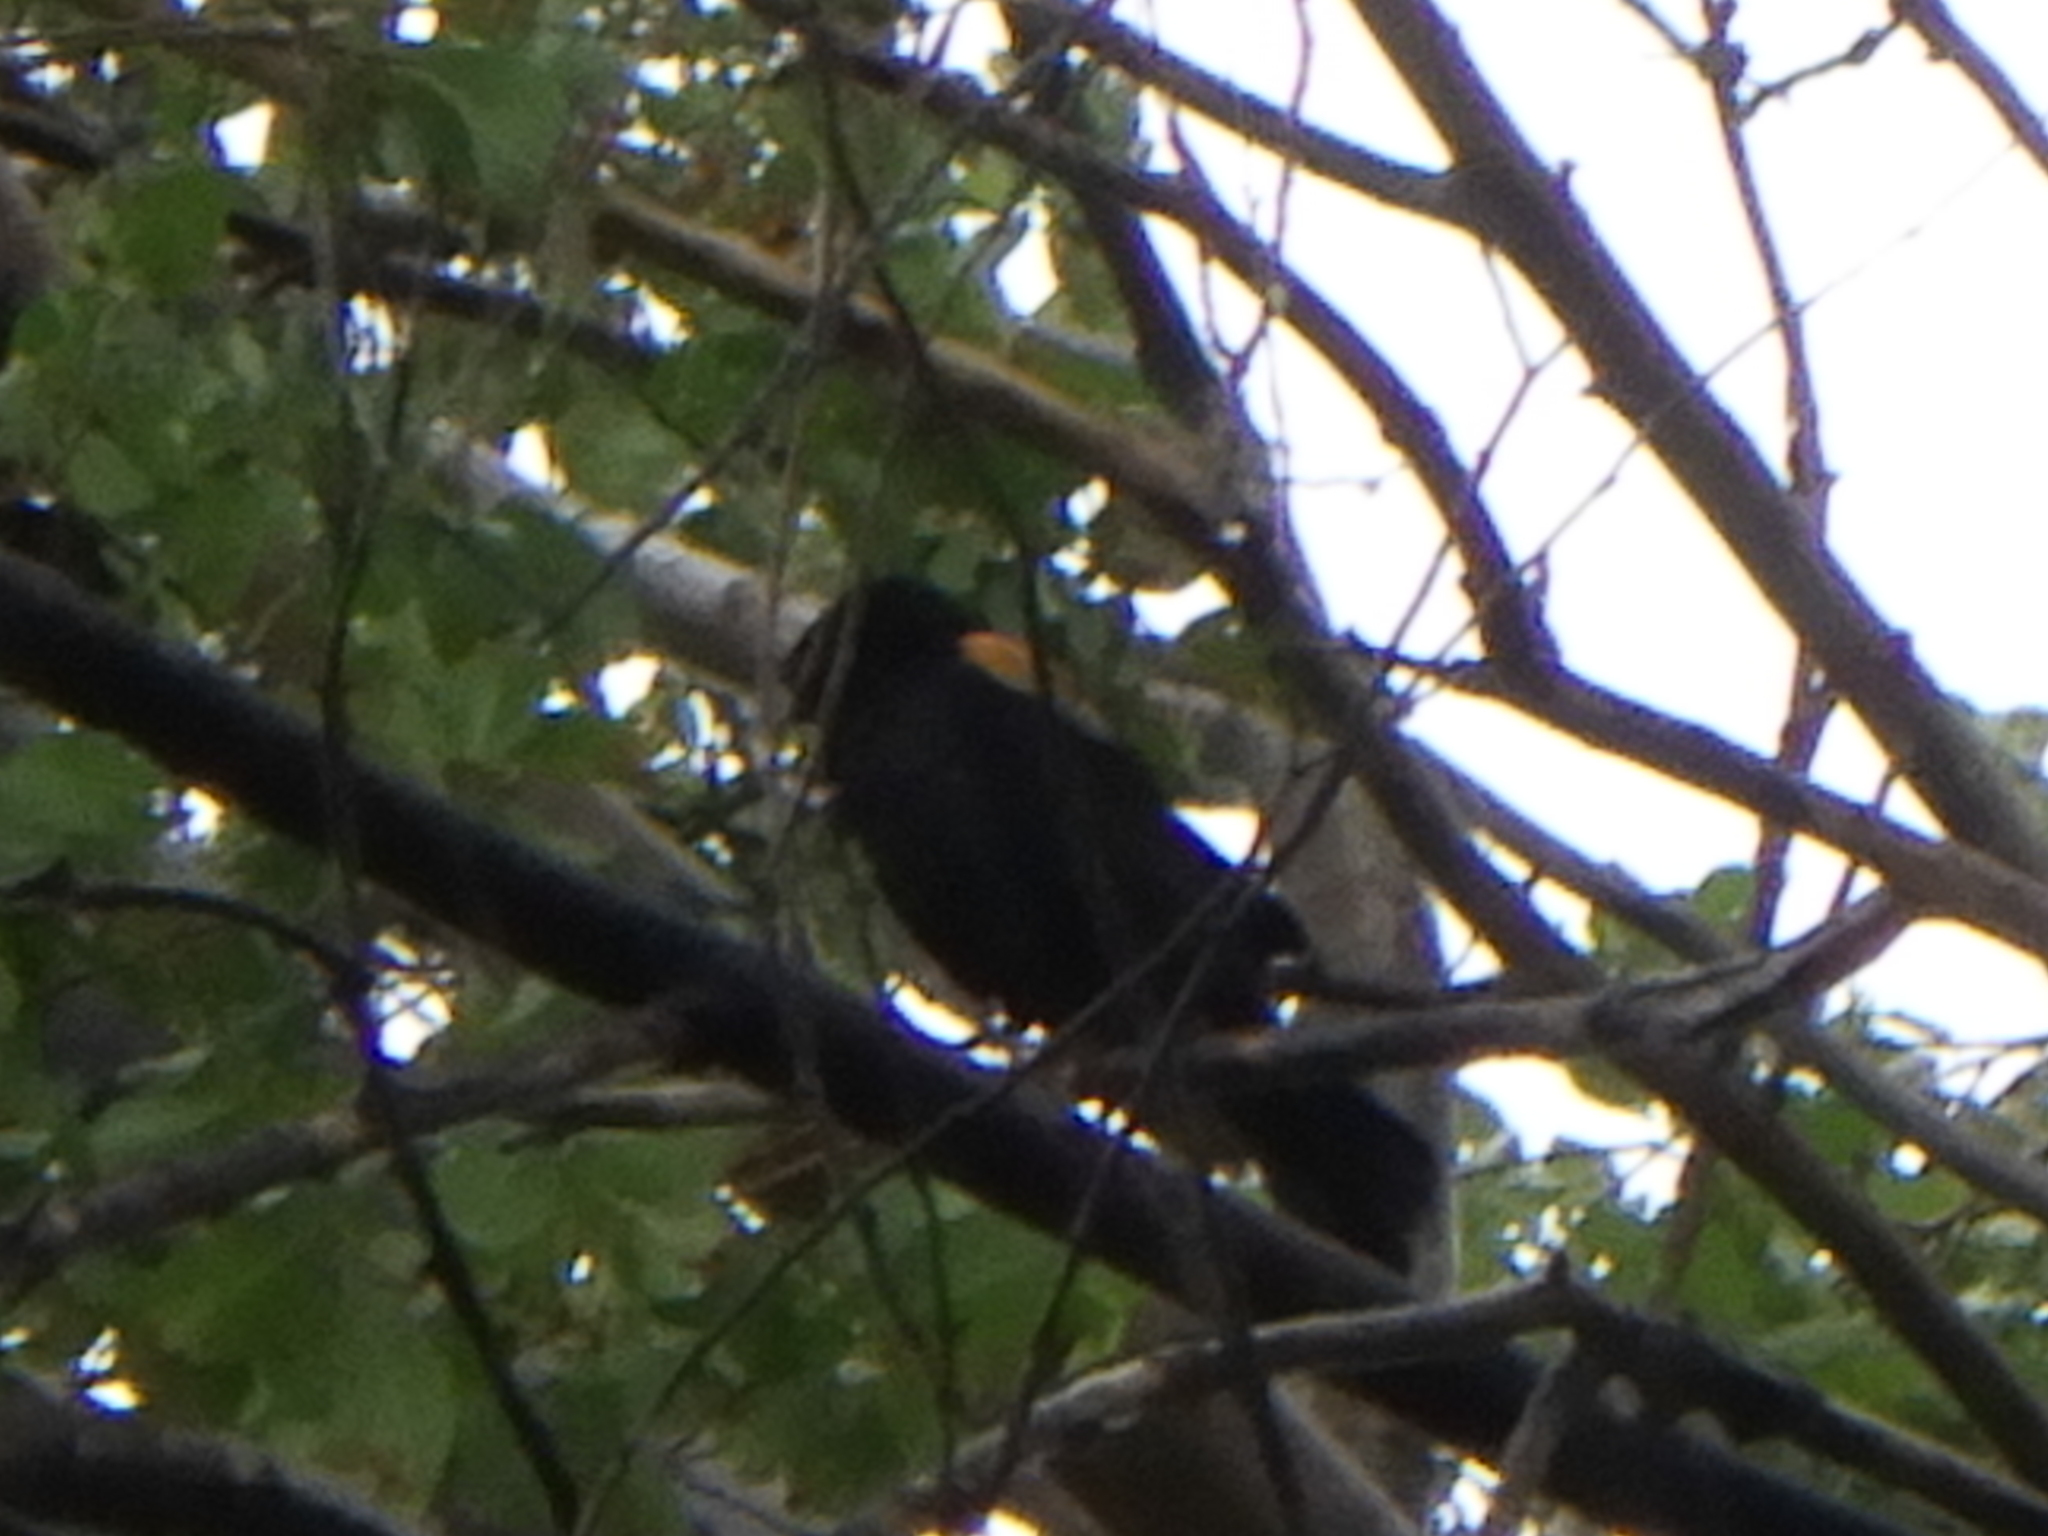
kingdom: Animalia
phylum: Chordata
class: Aves
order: Passeriformes
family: Icteridae
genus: Agelaius
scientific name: Agelaius phoeniceus
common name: Red-winged blackbird
